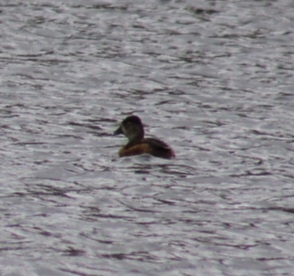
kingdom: Animalia
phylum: Chordata
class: Aves
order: Anseriformes
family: Anatidae
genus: Aythya
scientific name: Aythya collaris
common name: Ring-necked duck
